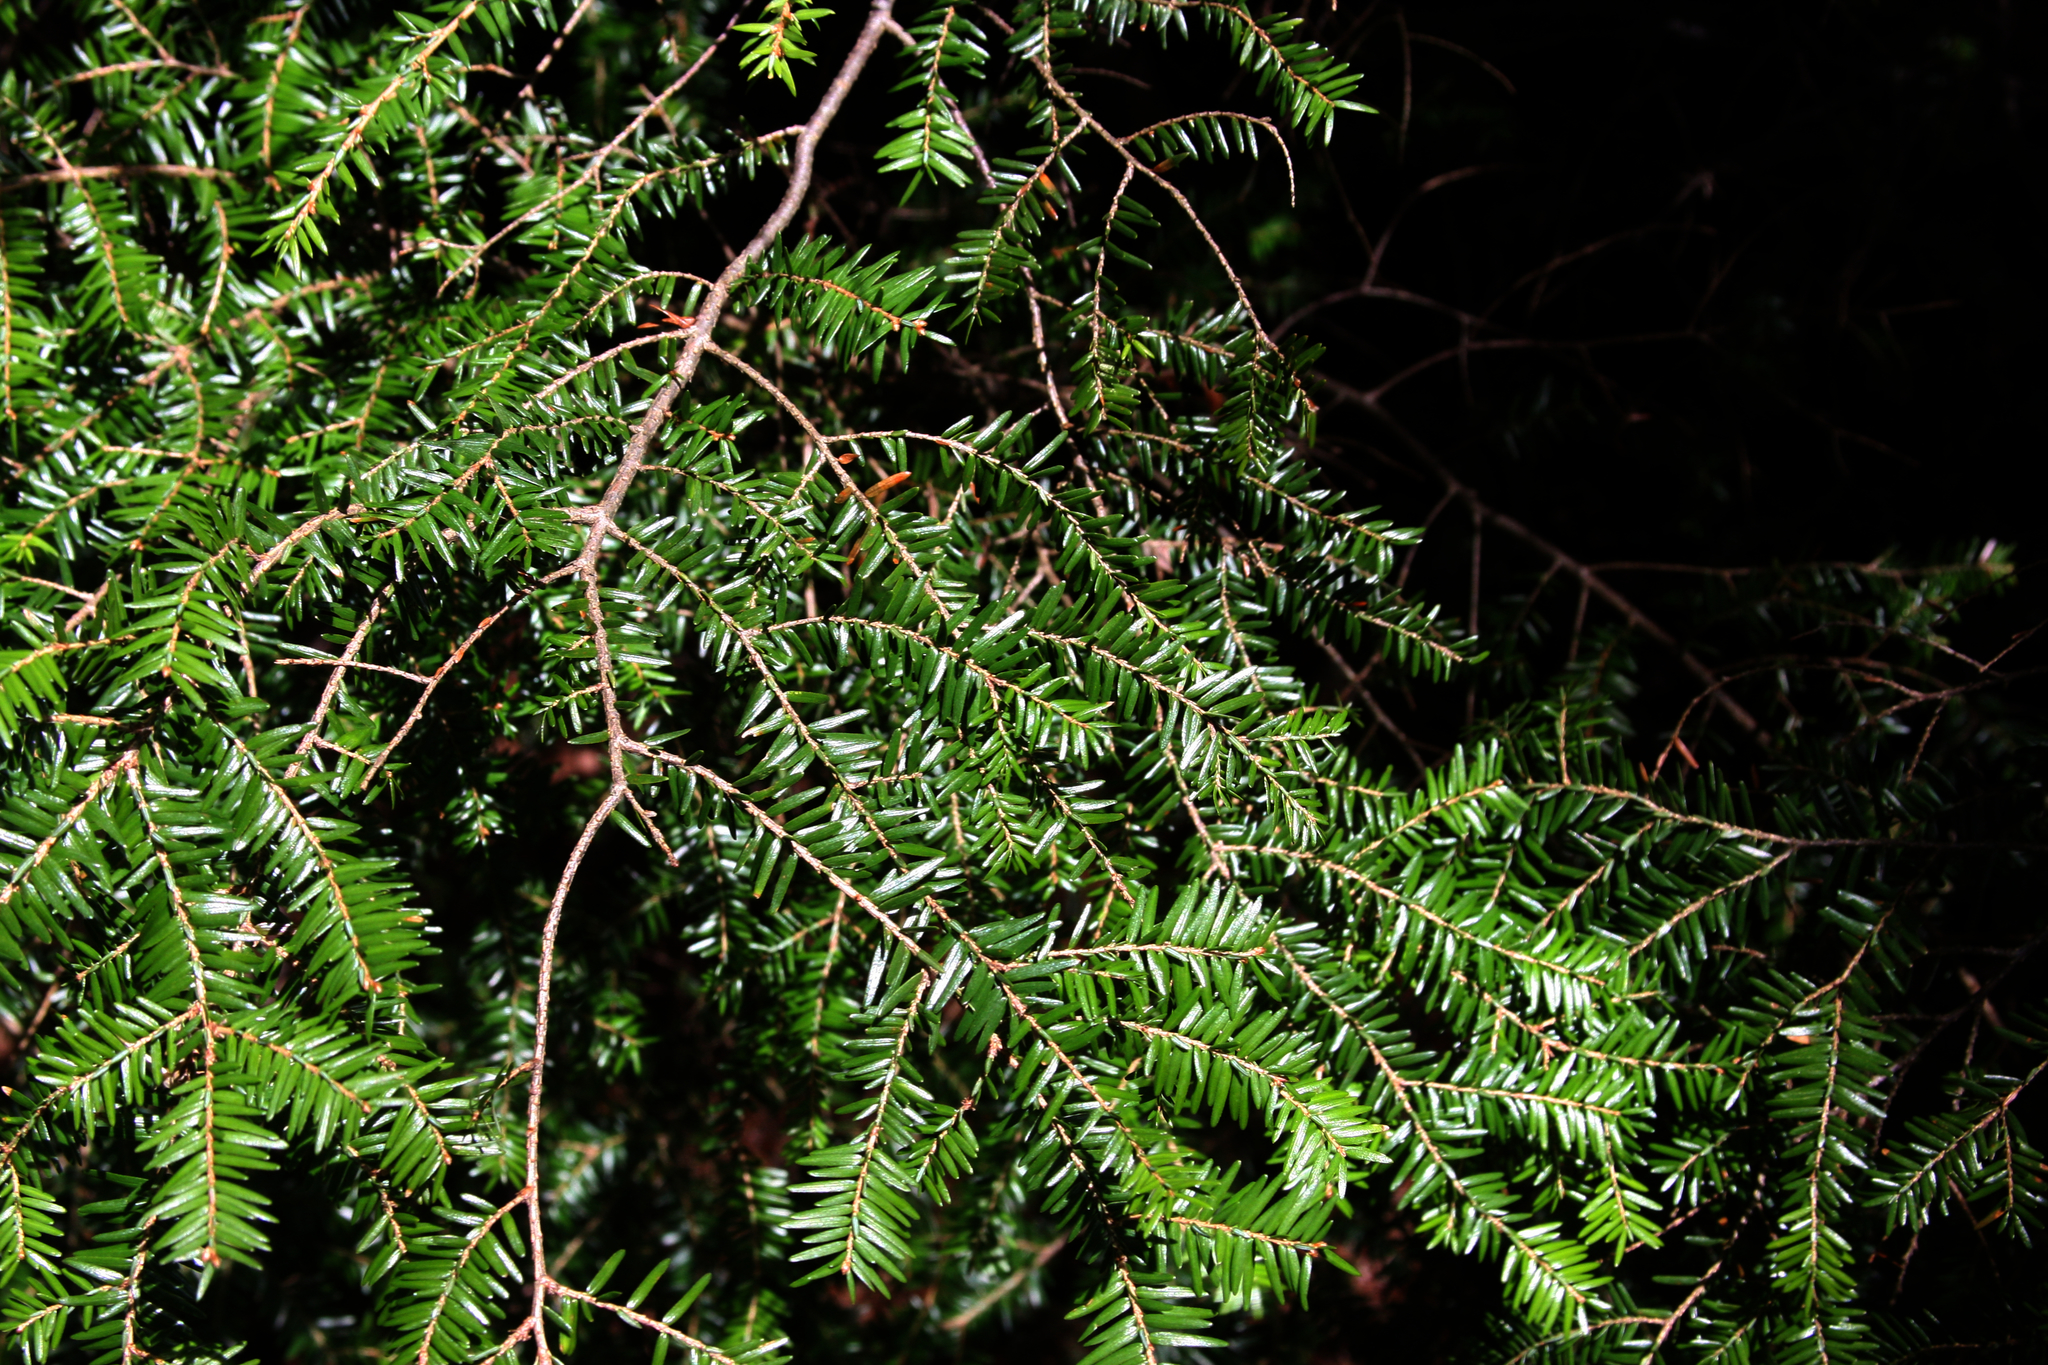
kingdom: Plantae
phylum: Tracheophyta
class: Pinopsida
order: Pinales
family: Pinaceae
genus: Tsuga
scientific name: Tsuga canadensis
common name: Eastern hemlock
